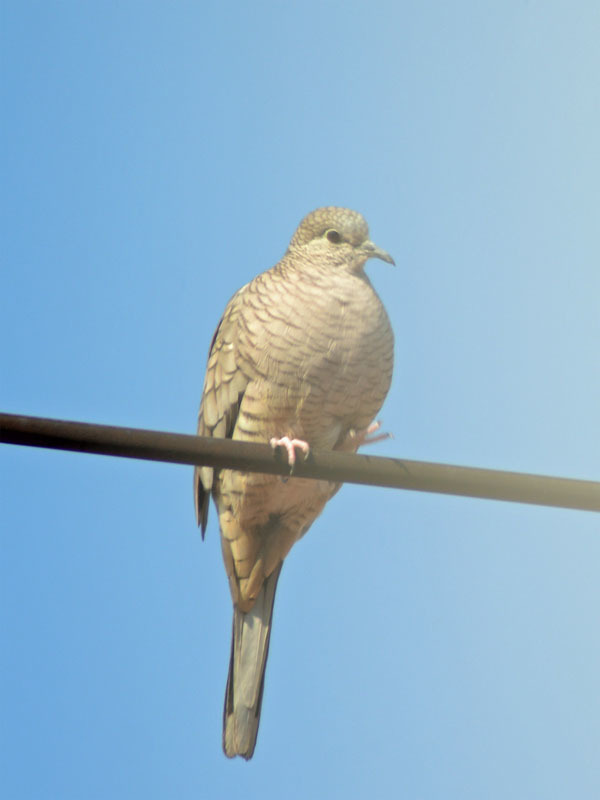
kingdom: Animalia
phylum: Chordata
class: Aves
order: Columbiformes
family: Columbidae
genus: Columbina
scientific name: Columbina inca
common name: Inca dove
